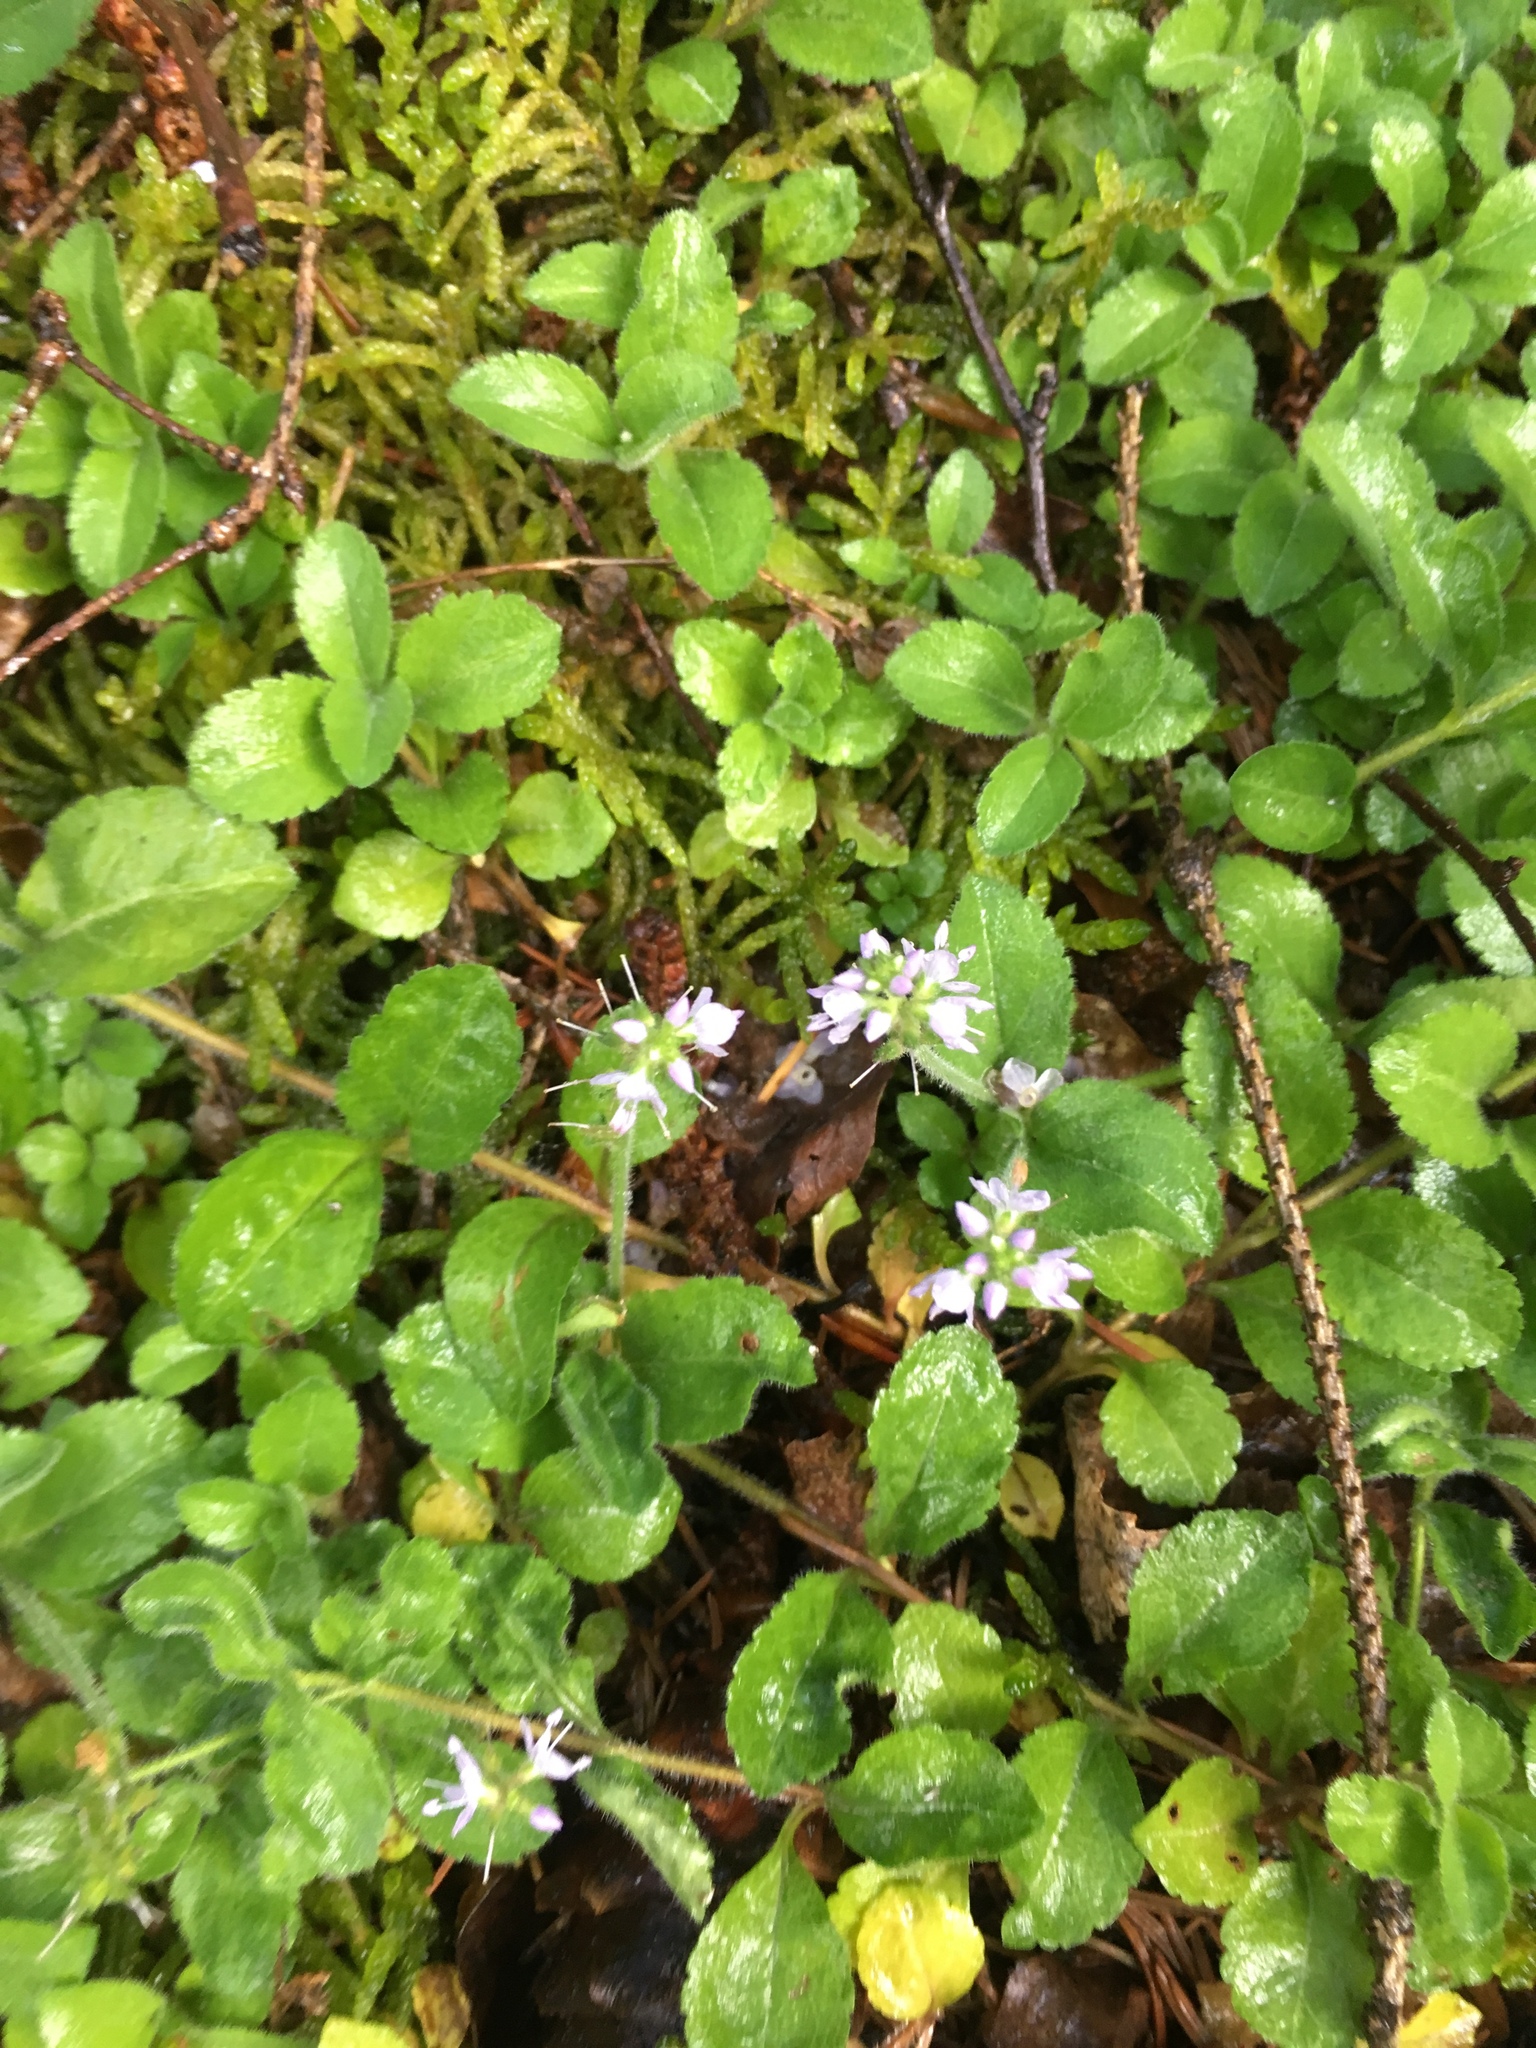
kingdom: Plantae
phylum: Tracheophyta
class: Magnoliopsida
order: Lamiales
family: Plantaginaceae
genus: Veronica
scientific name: Veronica officinalis
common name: Common speedwell
